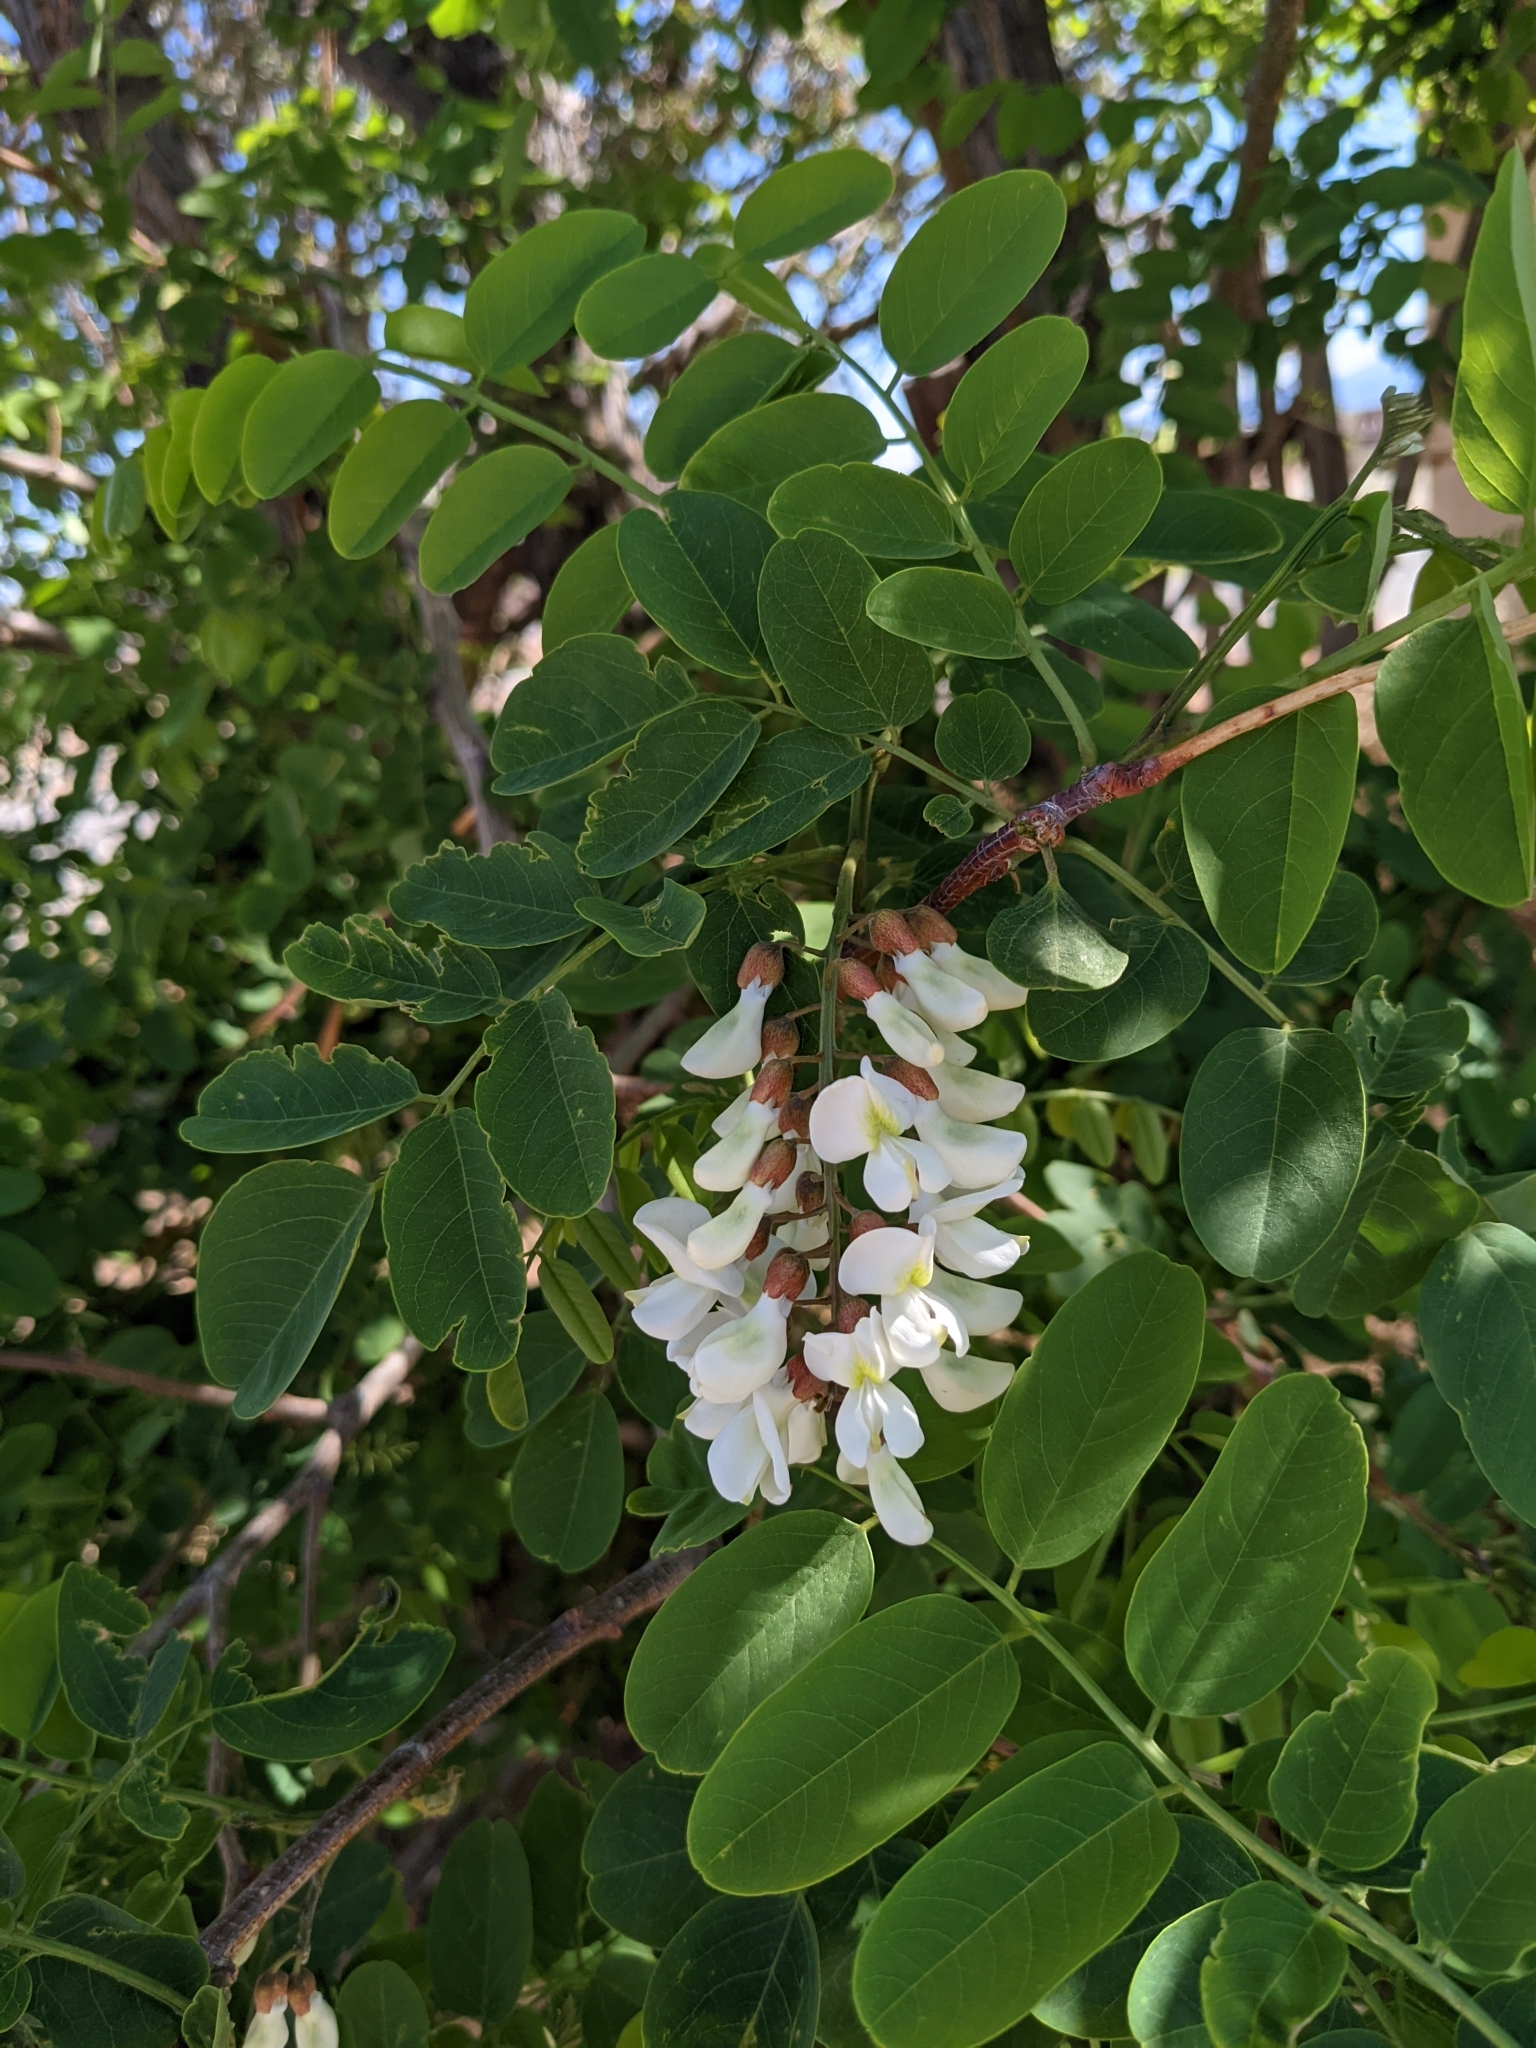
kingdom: Plantae
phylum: Tracheophyta
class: Magnoliopsida
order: Fabales
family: Fabaceae
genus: Robinia
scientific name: Robinia pseudoacacia
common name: Black locust
